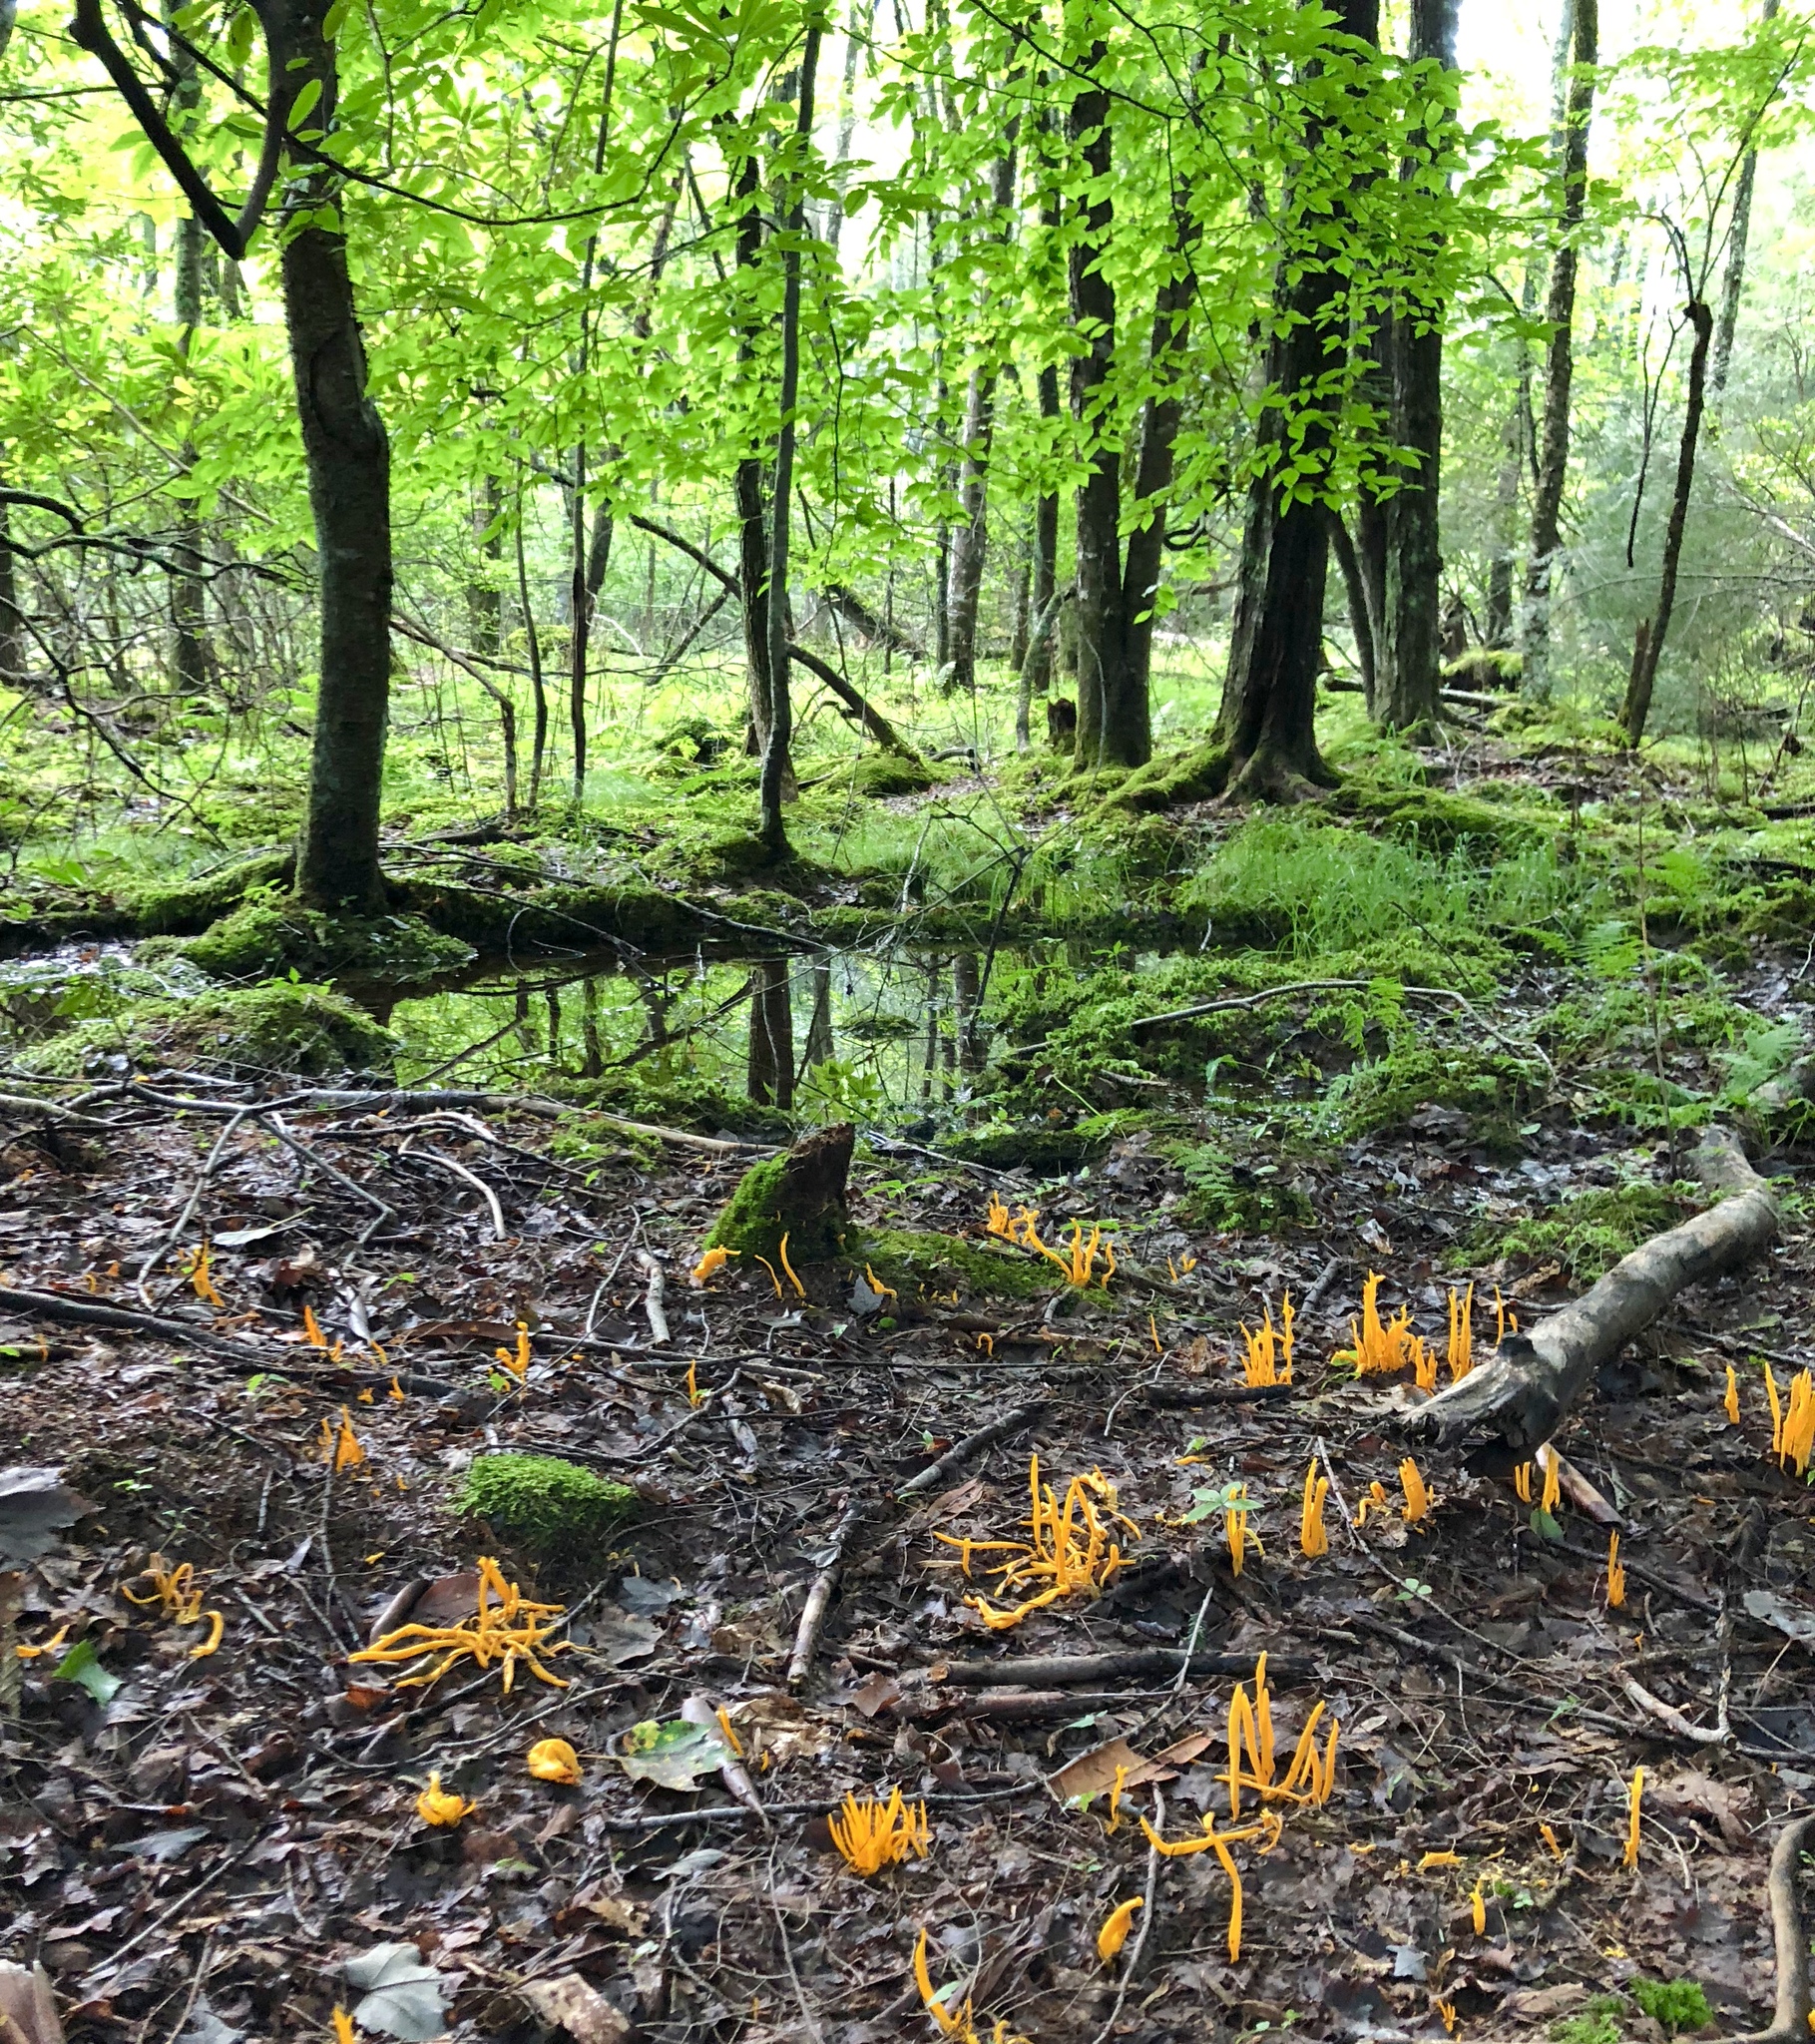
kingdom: Fungi
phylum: Basidiomycota
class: Agaricomycetes
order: Agaricales
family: Clavariaceae
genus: Clavulinopsis
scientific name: Clavulinopsis aurantiocinnabarina
